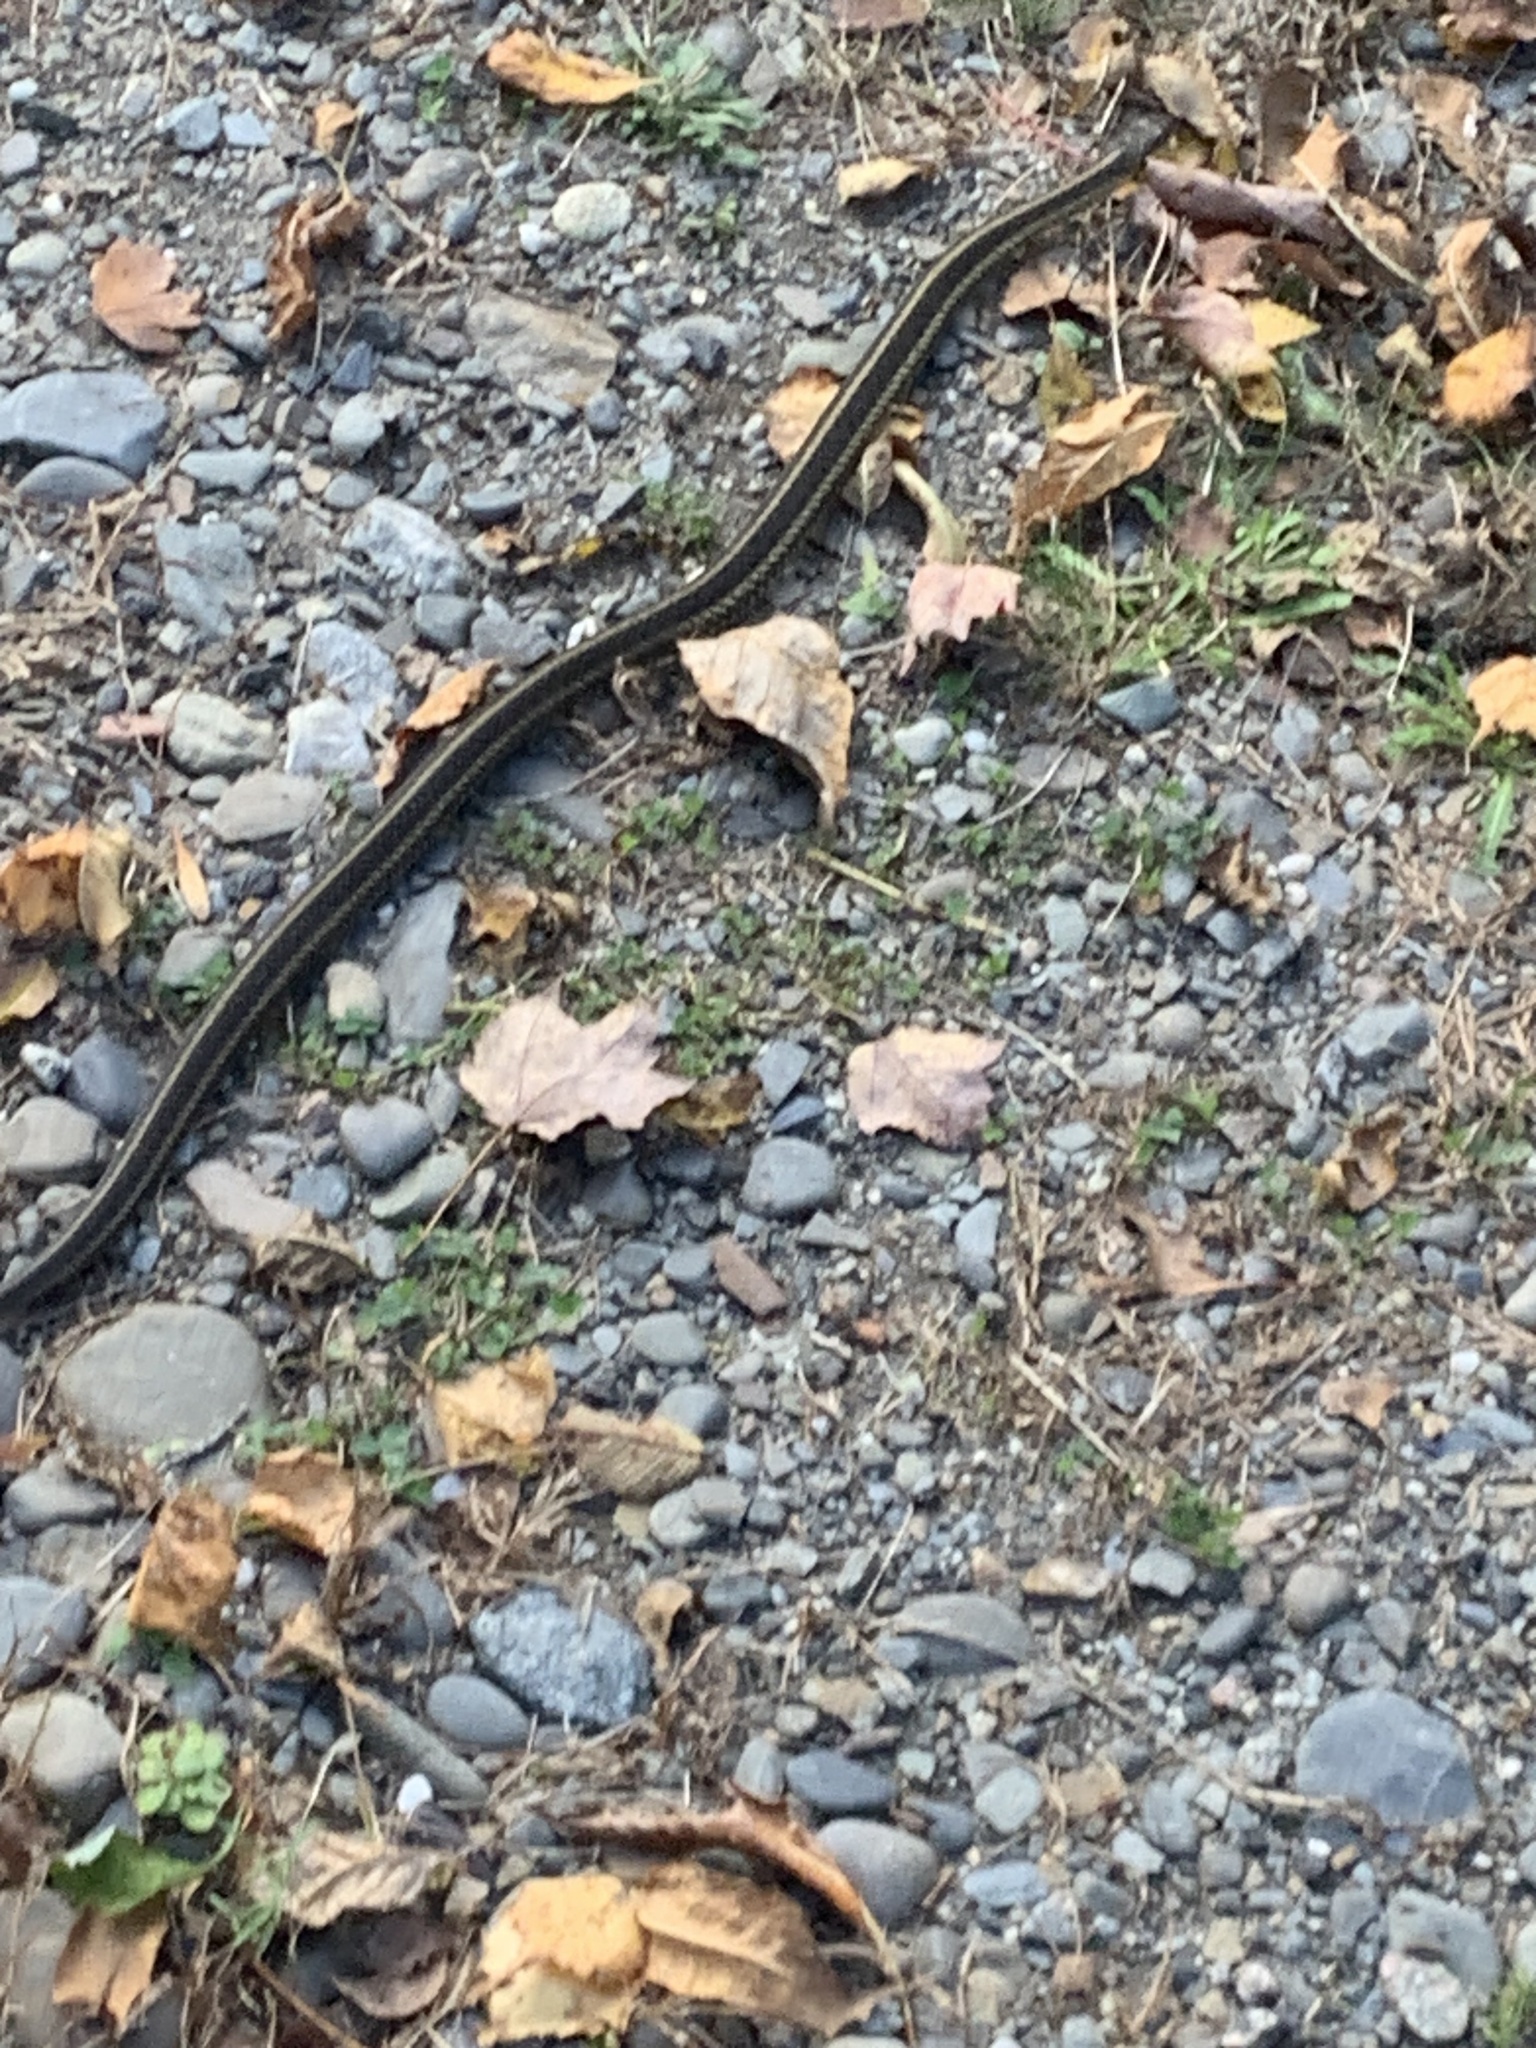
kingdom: Animalia
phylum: Chordata
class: Squamata
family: Colubridae
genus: Thamnophis
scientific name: Thamnophis sirtalis
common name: Common garter snake
